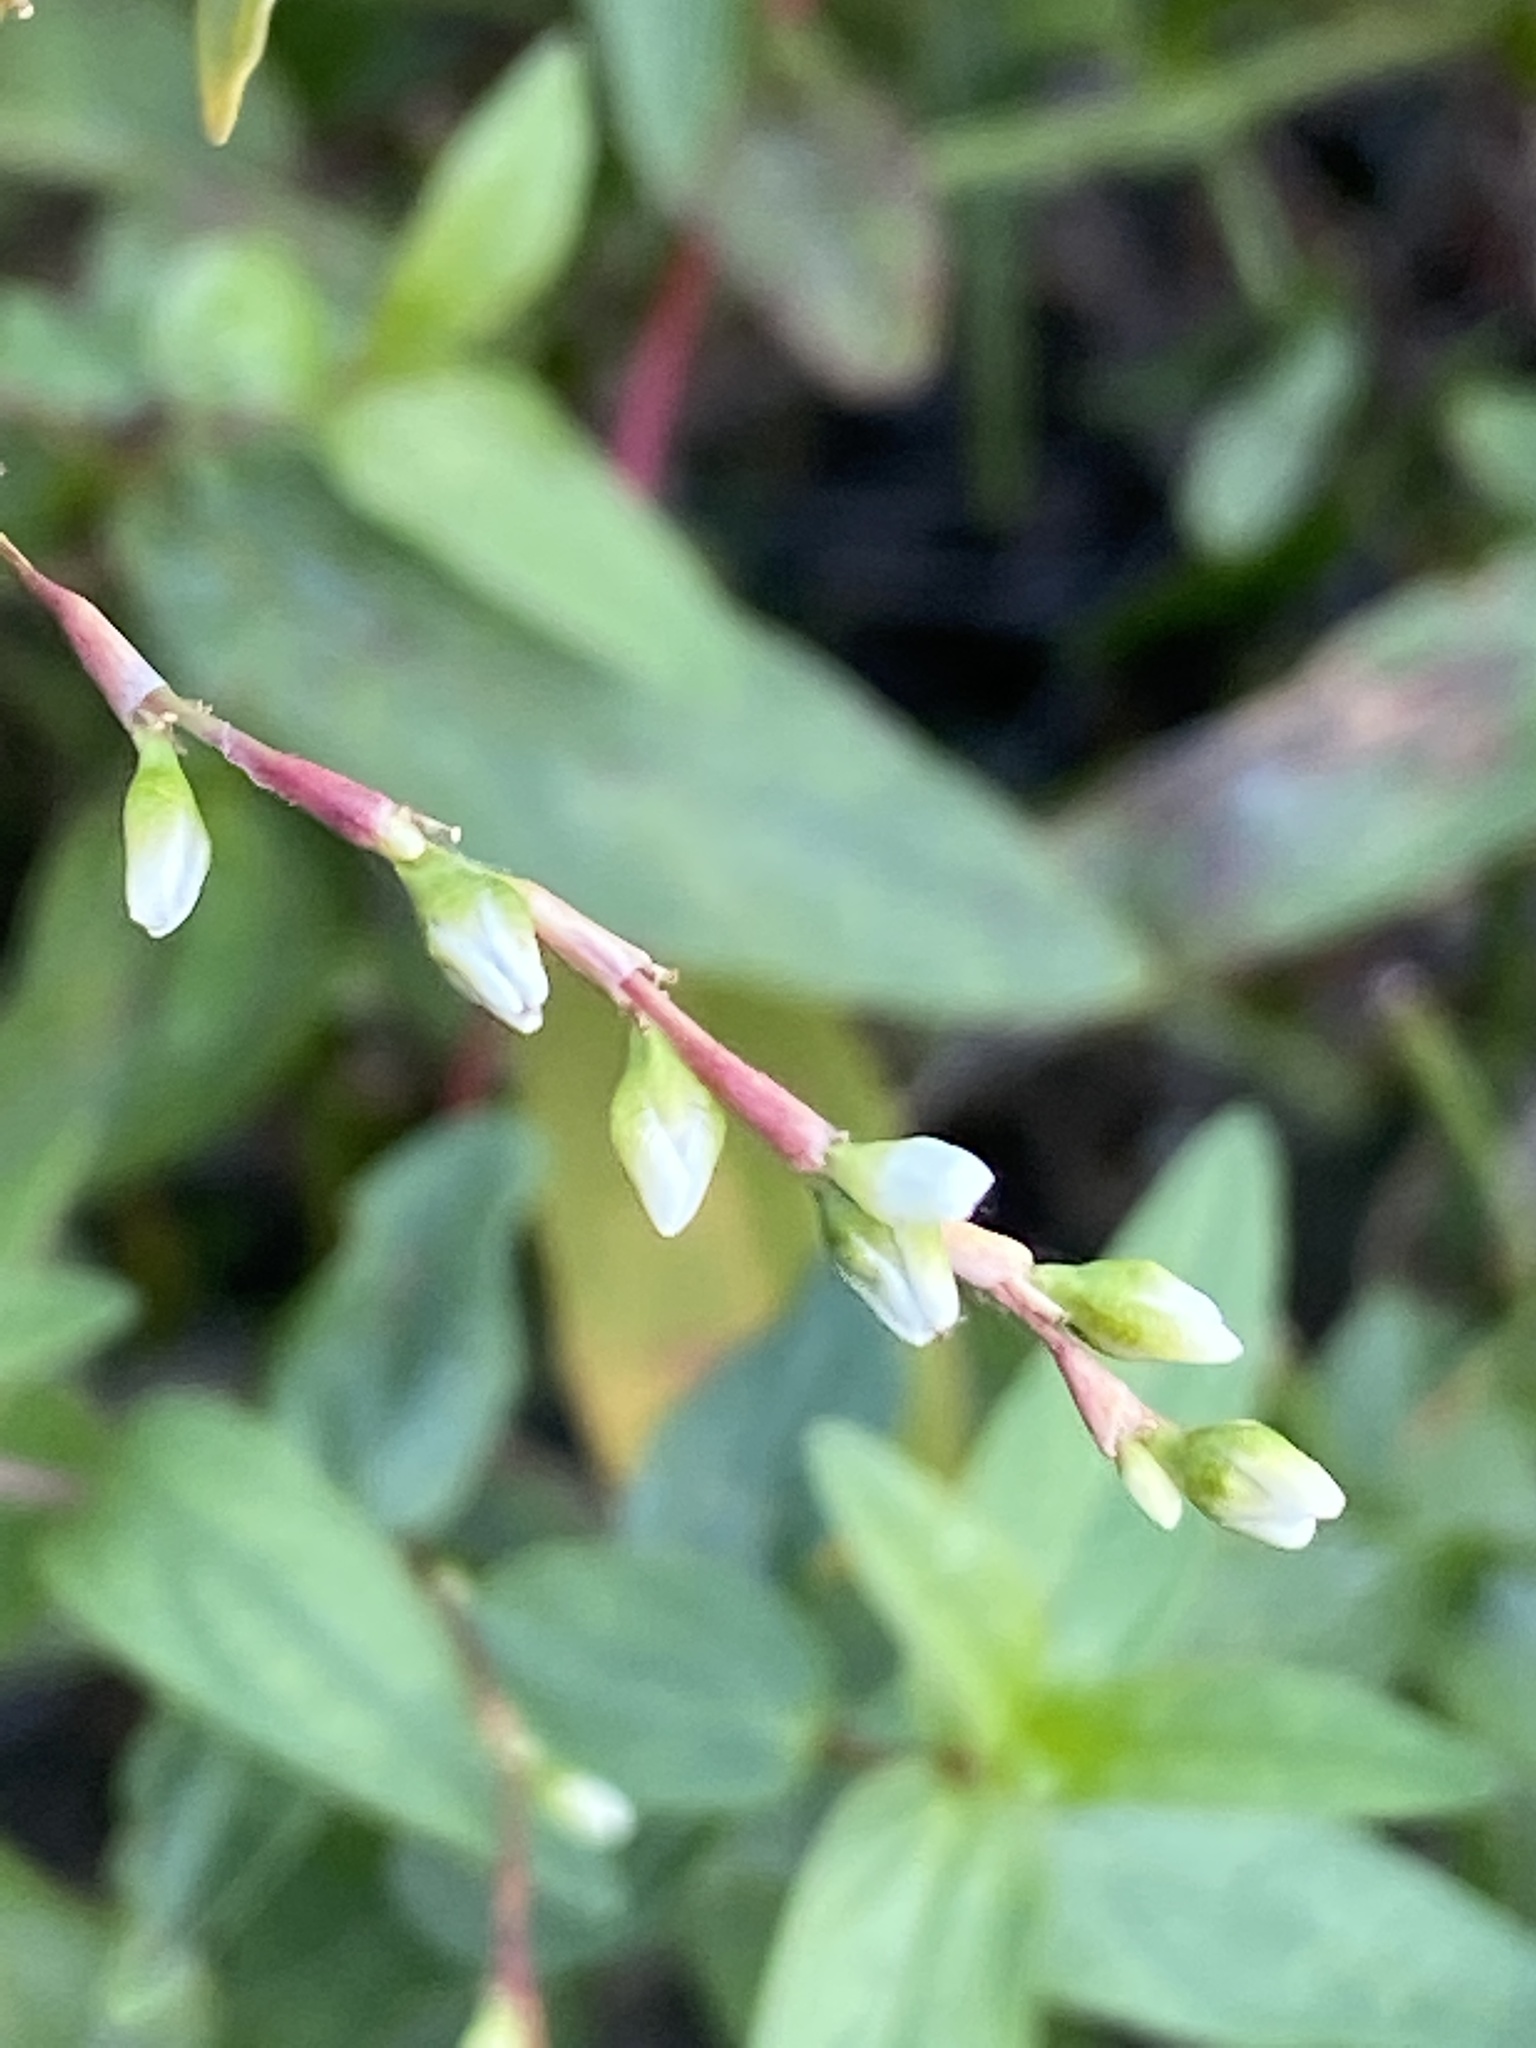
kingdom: Plantae
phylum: Tracheophyta
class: Magnoliopsida
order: Caryophyllales
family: Polygonaceae
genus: Persicaria
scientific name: Persicaria punctata
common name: Dotted smartweed
